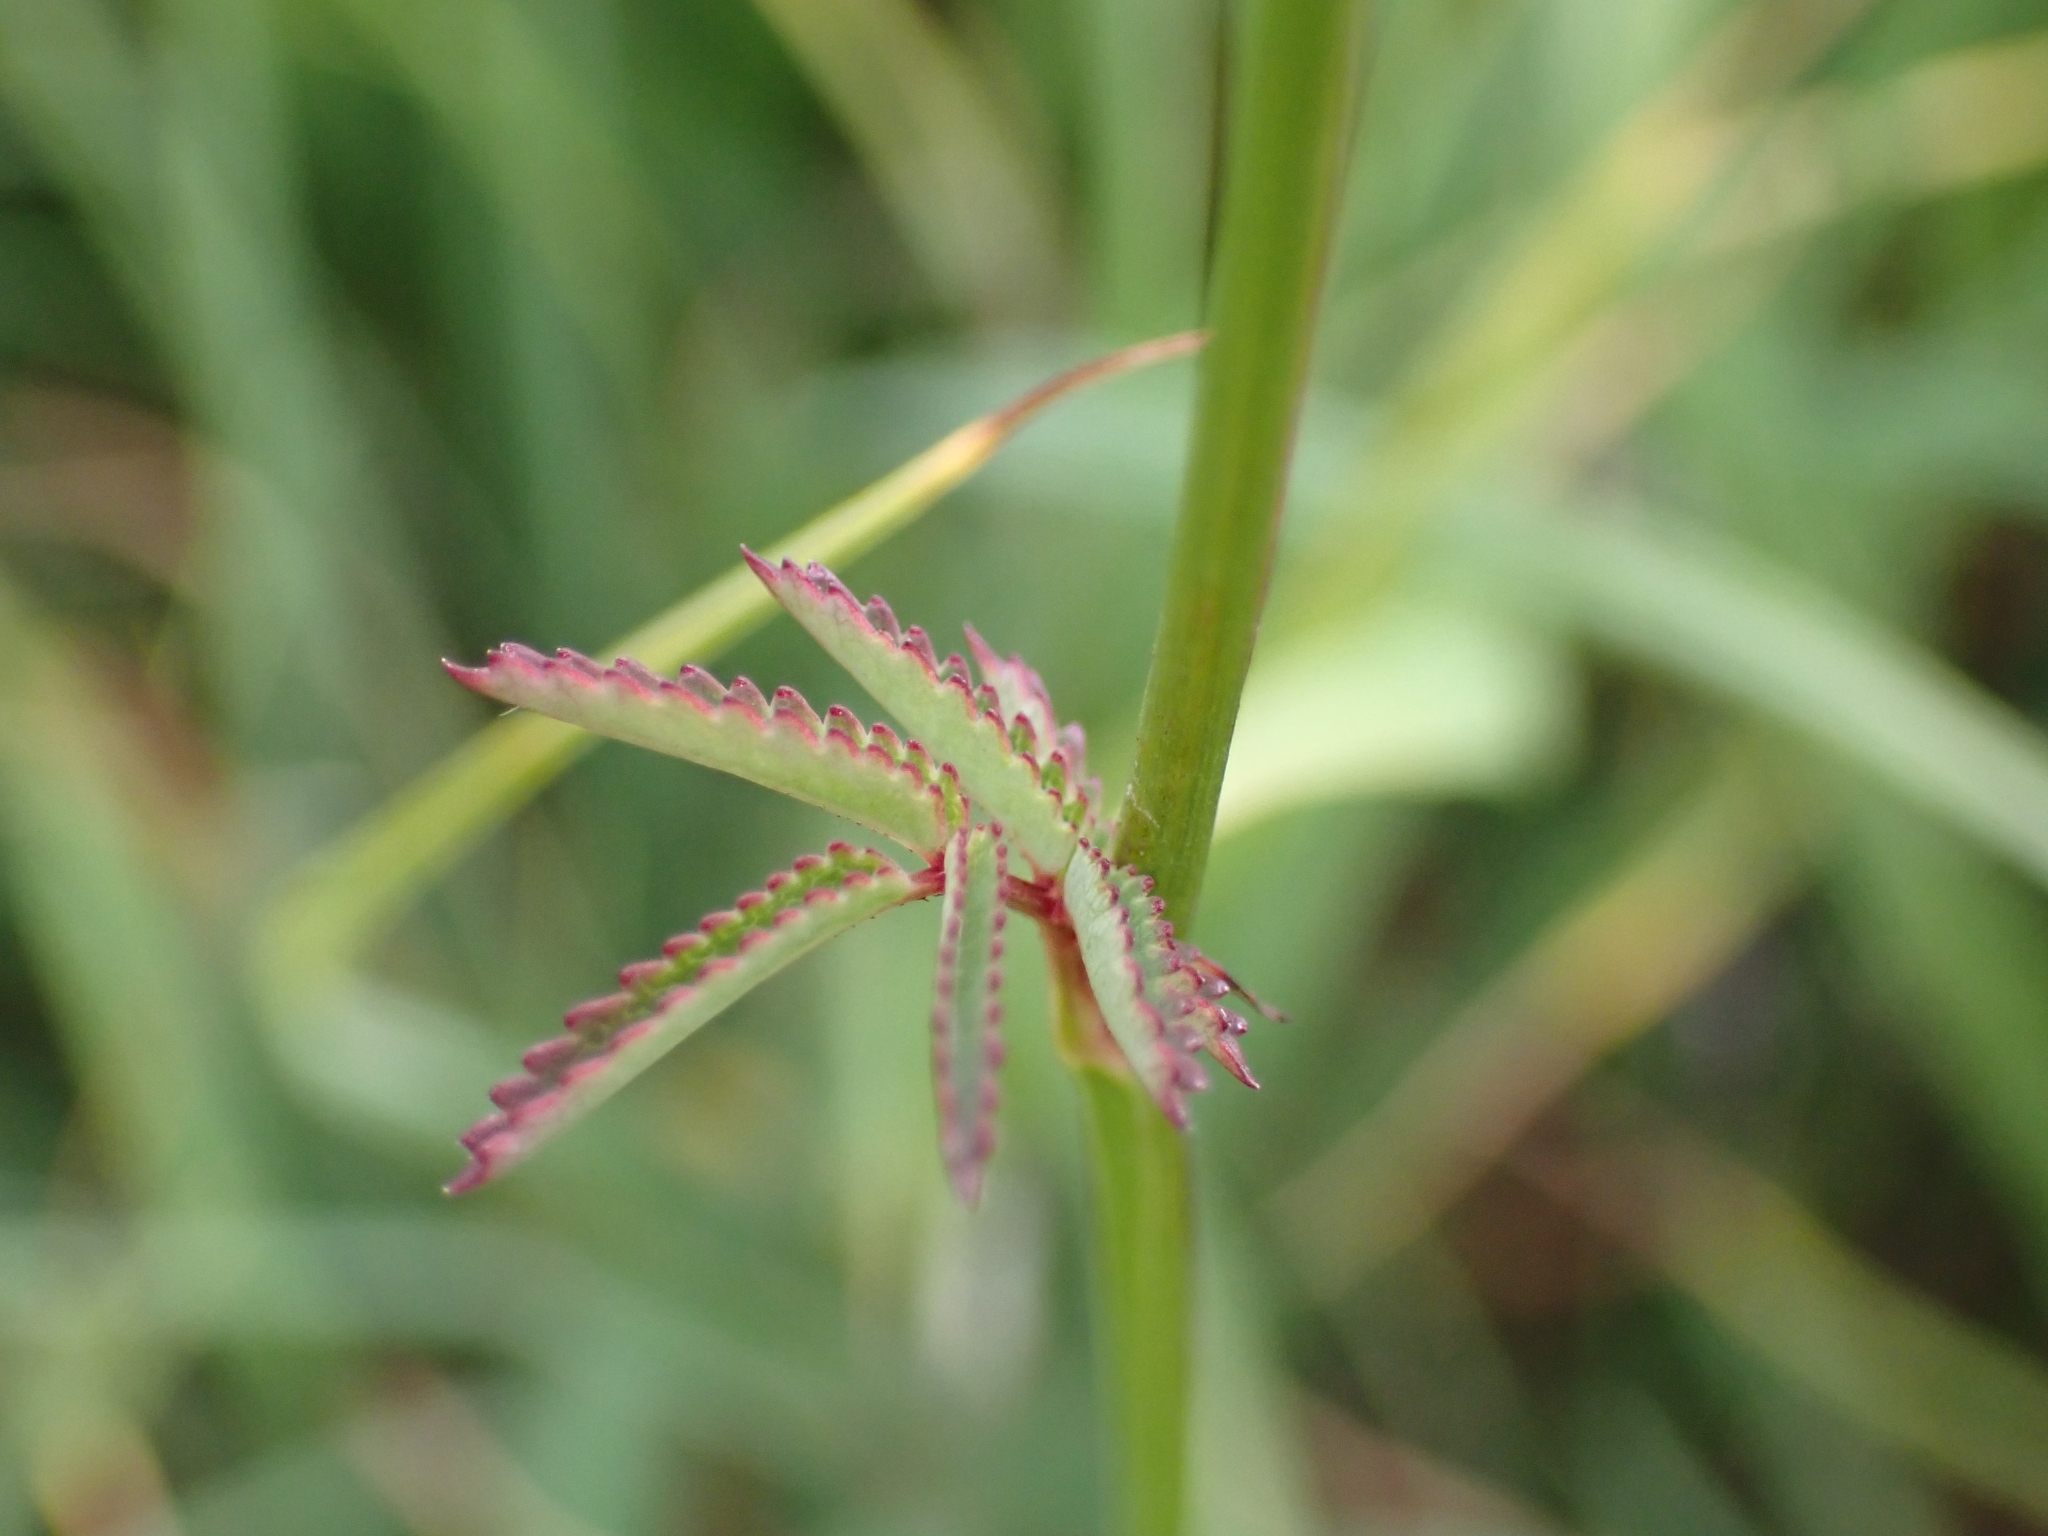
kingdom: Plantae
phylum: Tracheophyta
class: Magnoliopsida
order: Rosales
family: Rosaceae
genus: Sanguisorba
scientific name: Sanguisorba officinalis
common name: Great burnet
